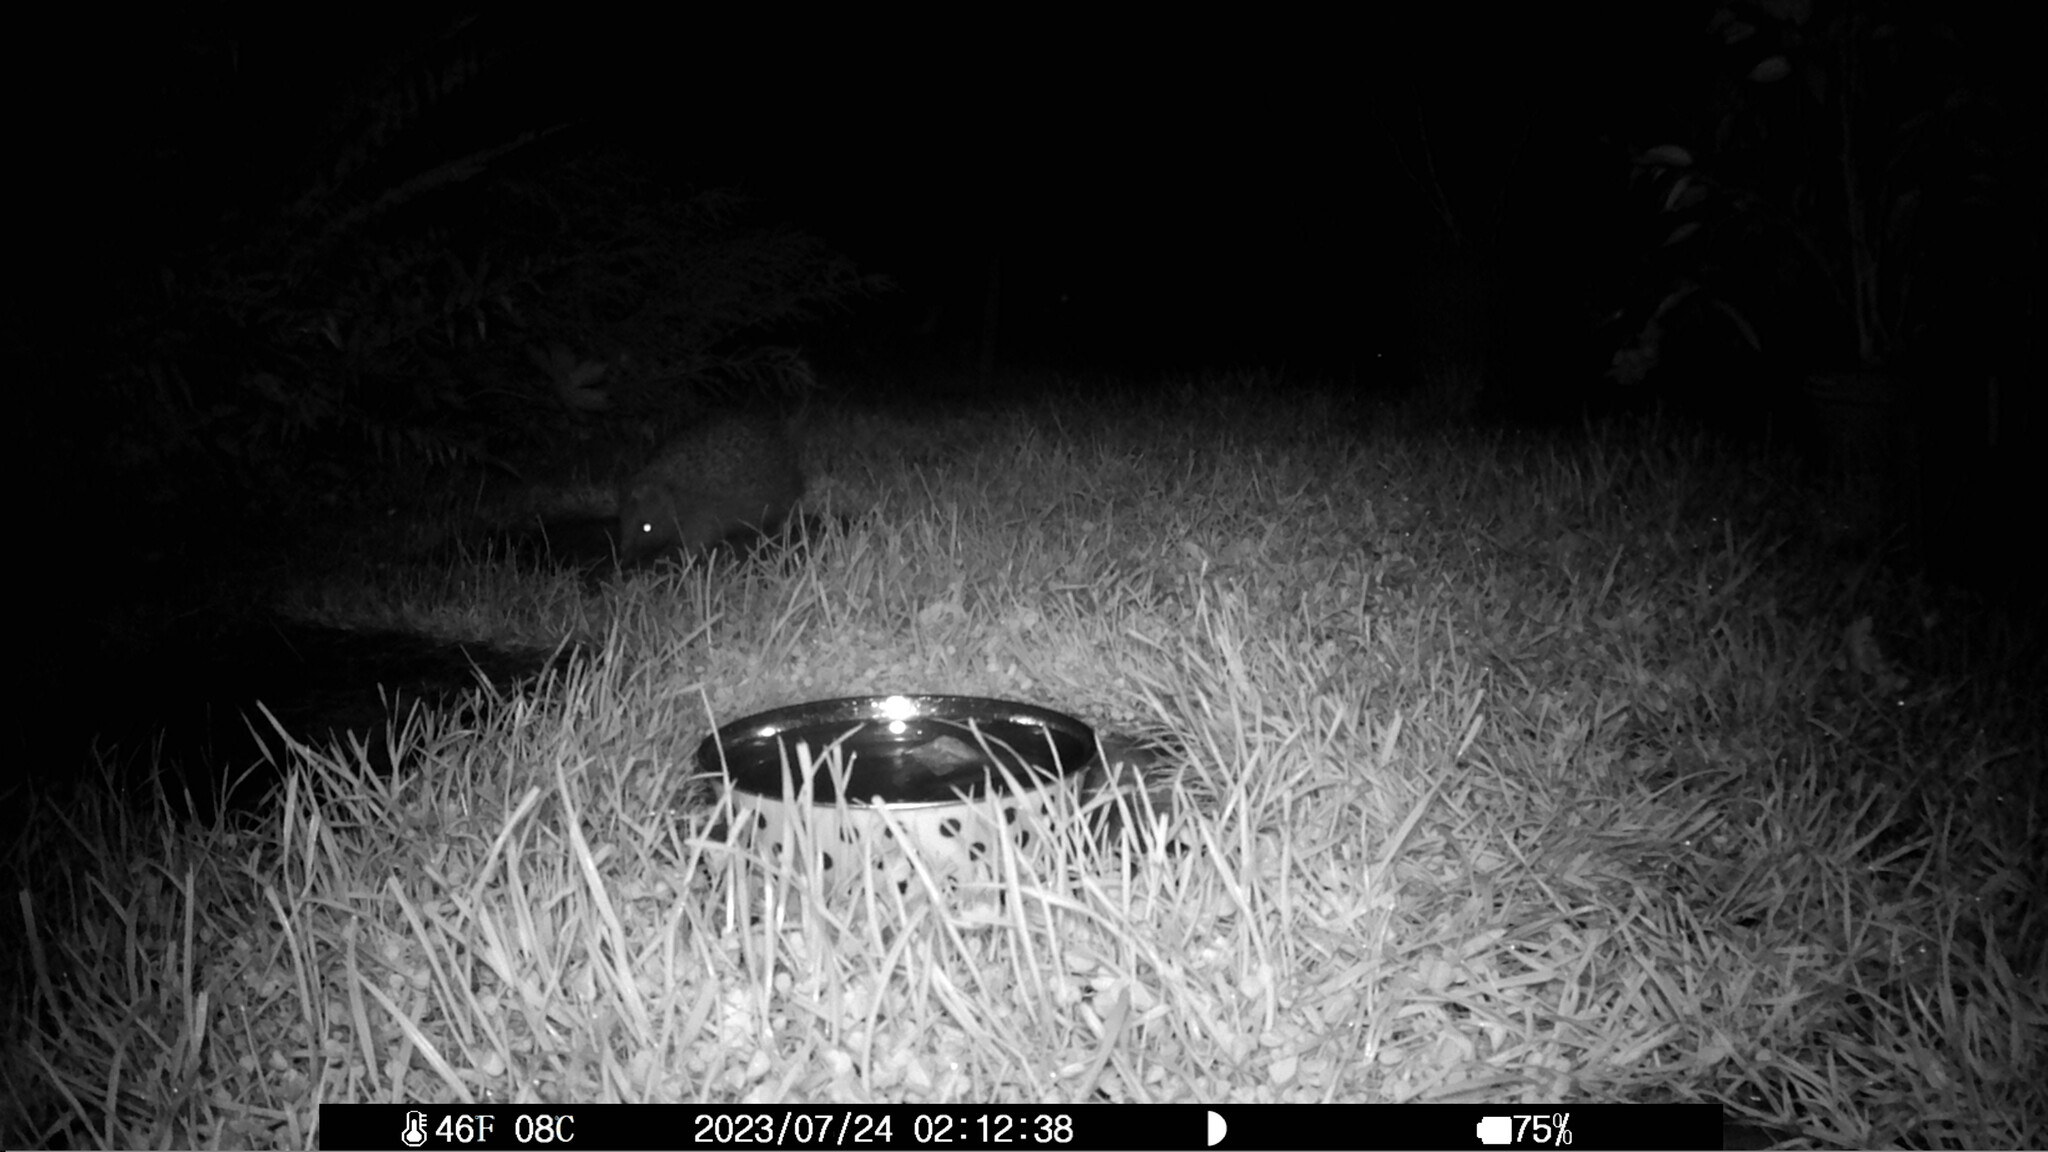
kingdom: Animalia
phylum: Chordata
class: Mammalia
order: Erinaceomorpha
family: Erinaceidae
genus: Erinaceus
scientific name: Erinaceus europaeus
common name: West european hedgehog
